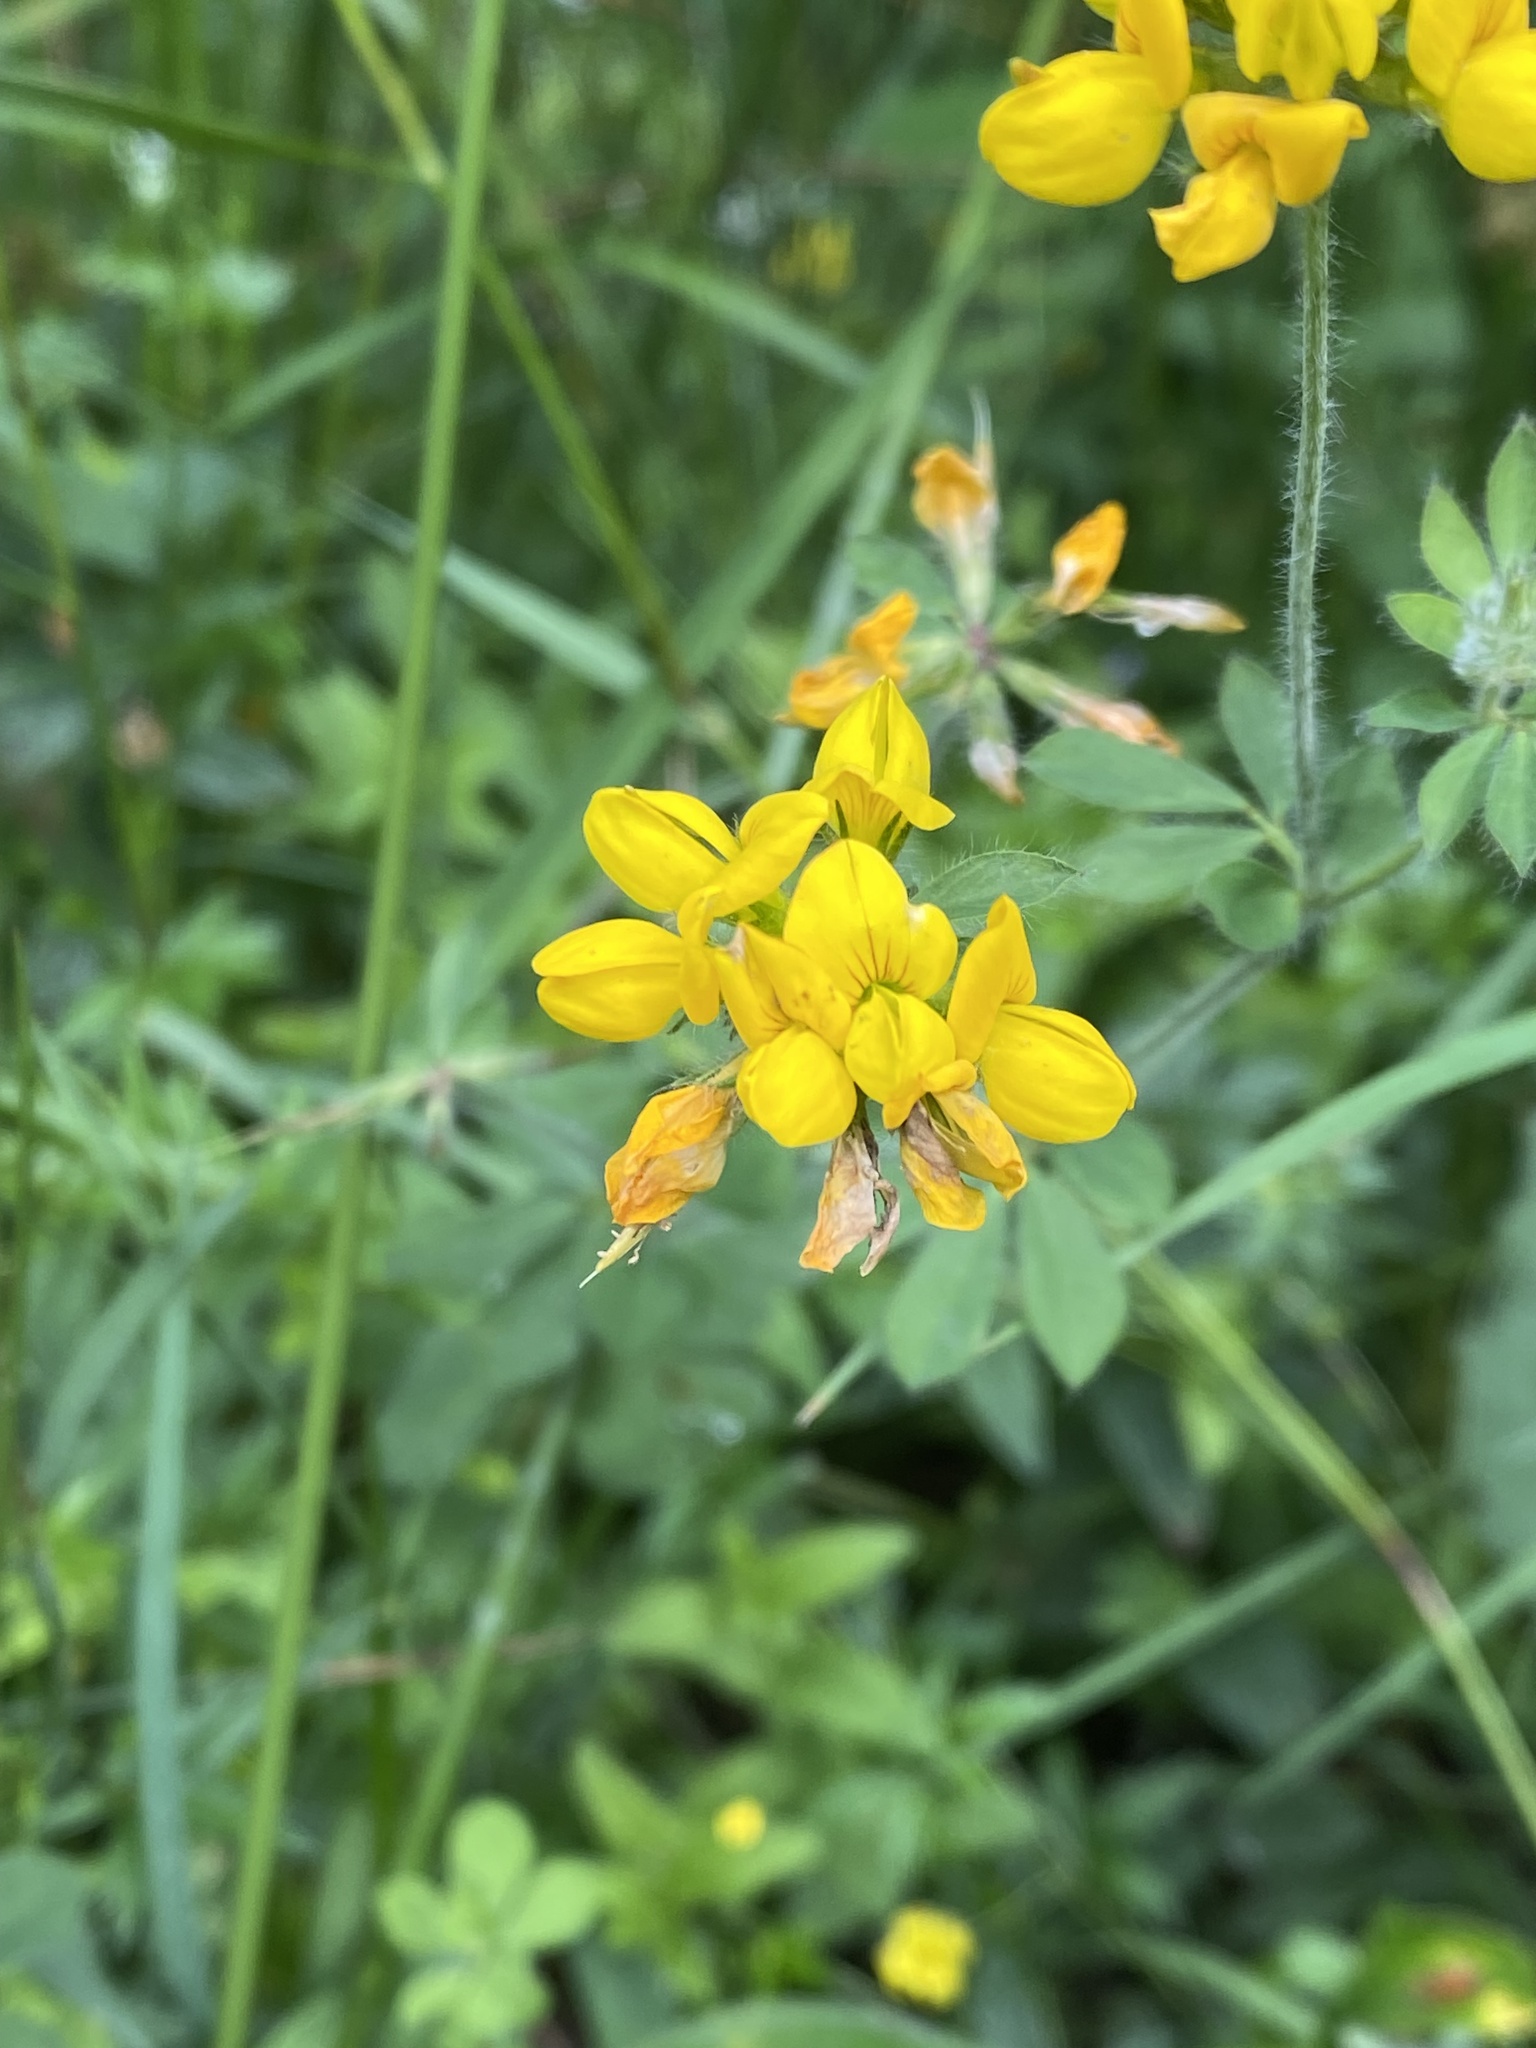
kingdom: Plantae
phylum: Tracheophyta
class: Magnoliopsida
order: Fabales
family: Fabaceae
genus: Lotus
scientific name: Lotus pedunculatus
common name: Greater birdsfoot-trefoil
